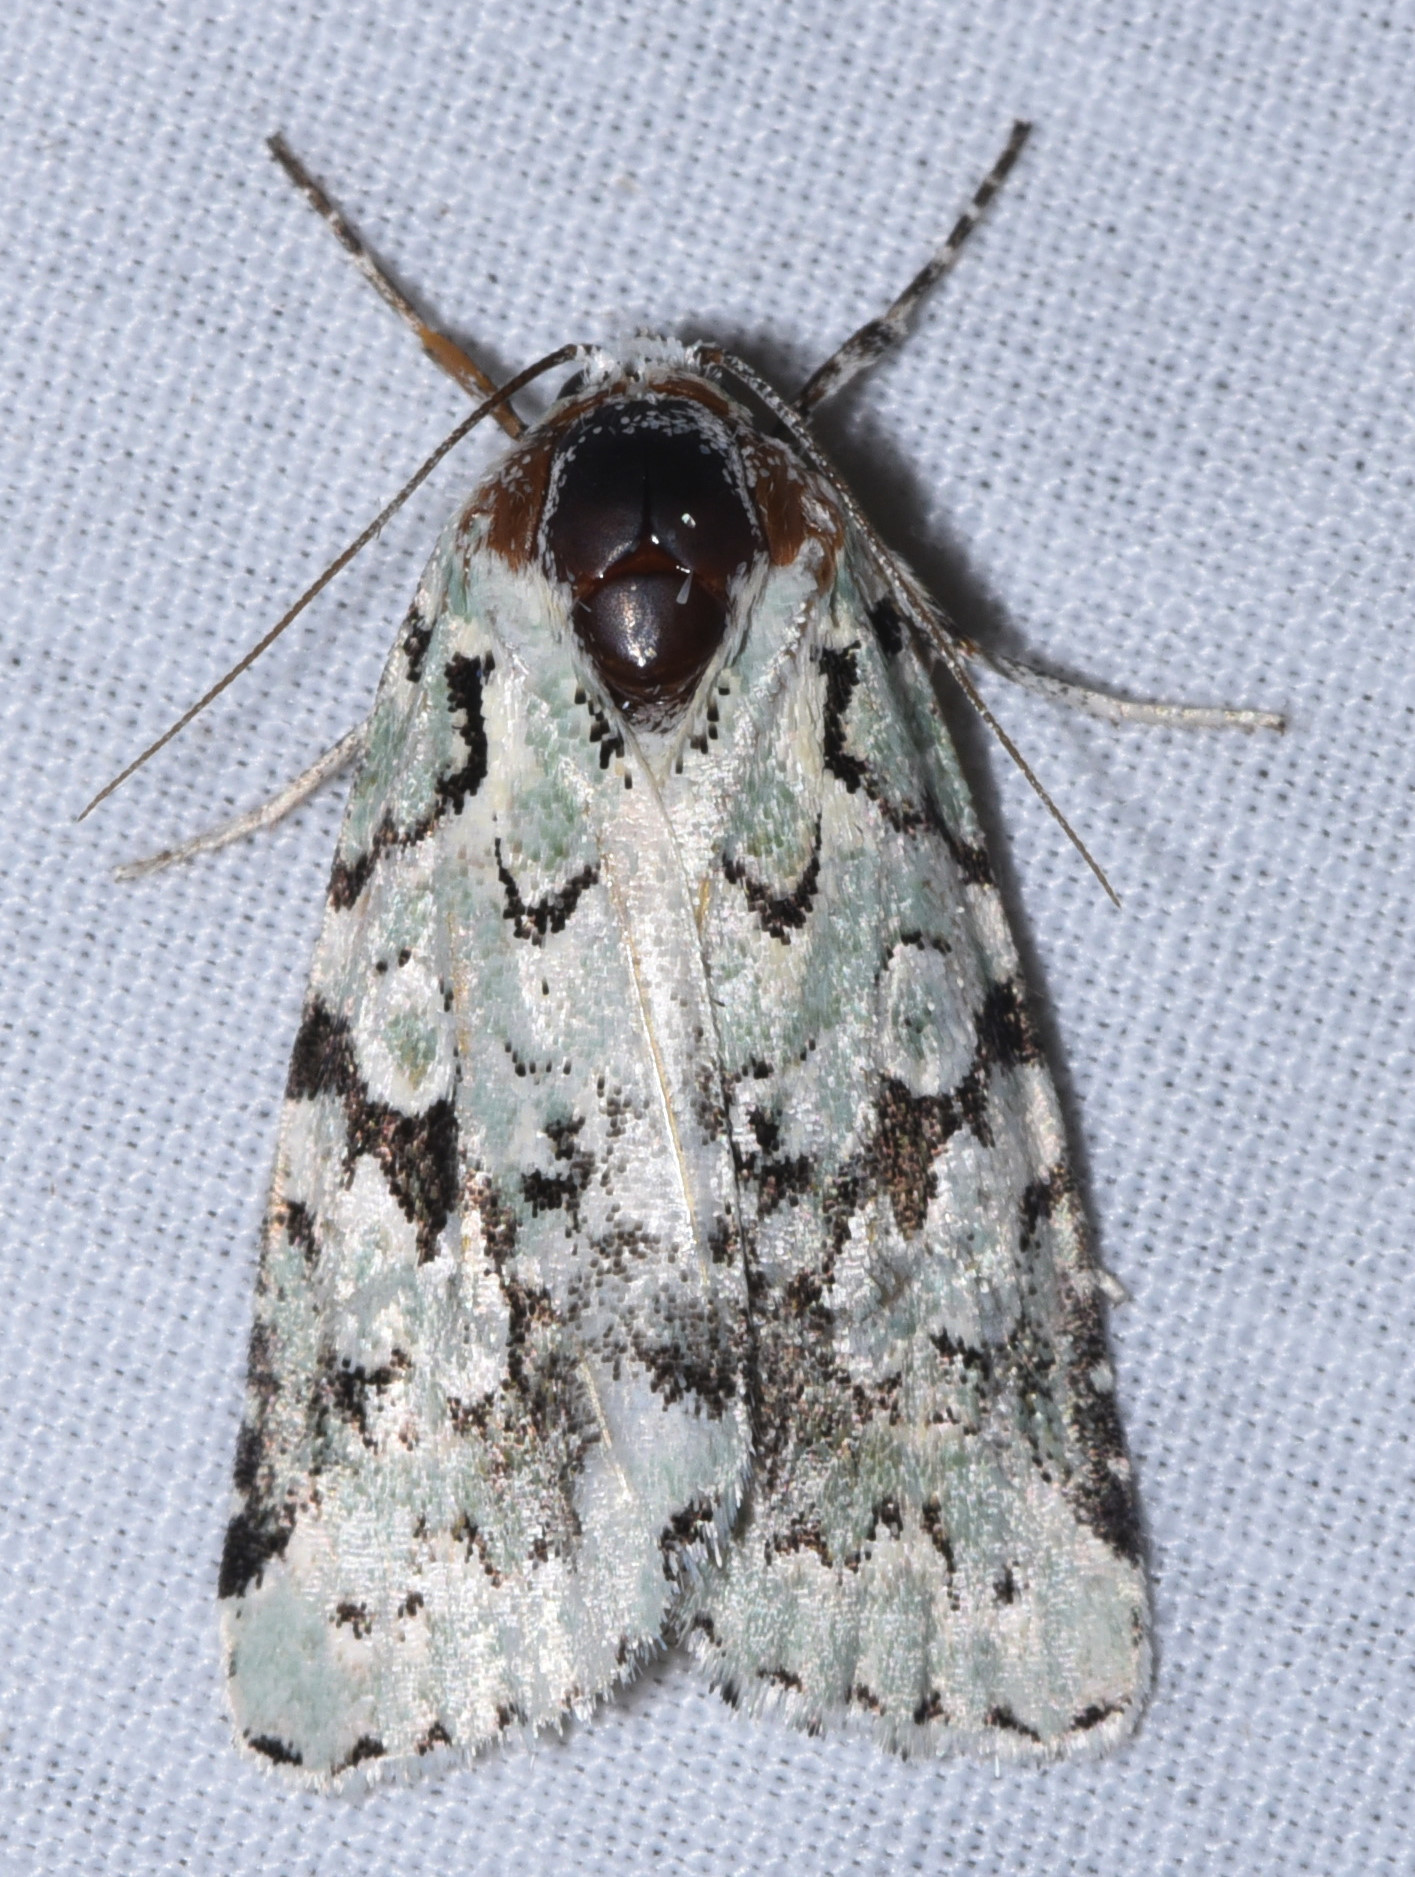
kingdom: Animalia
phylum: Arthropoda
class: Insecta
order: Lepidoptera
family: Noctuidae
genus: Bryolymnia
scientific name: Bryolymnia viridata
